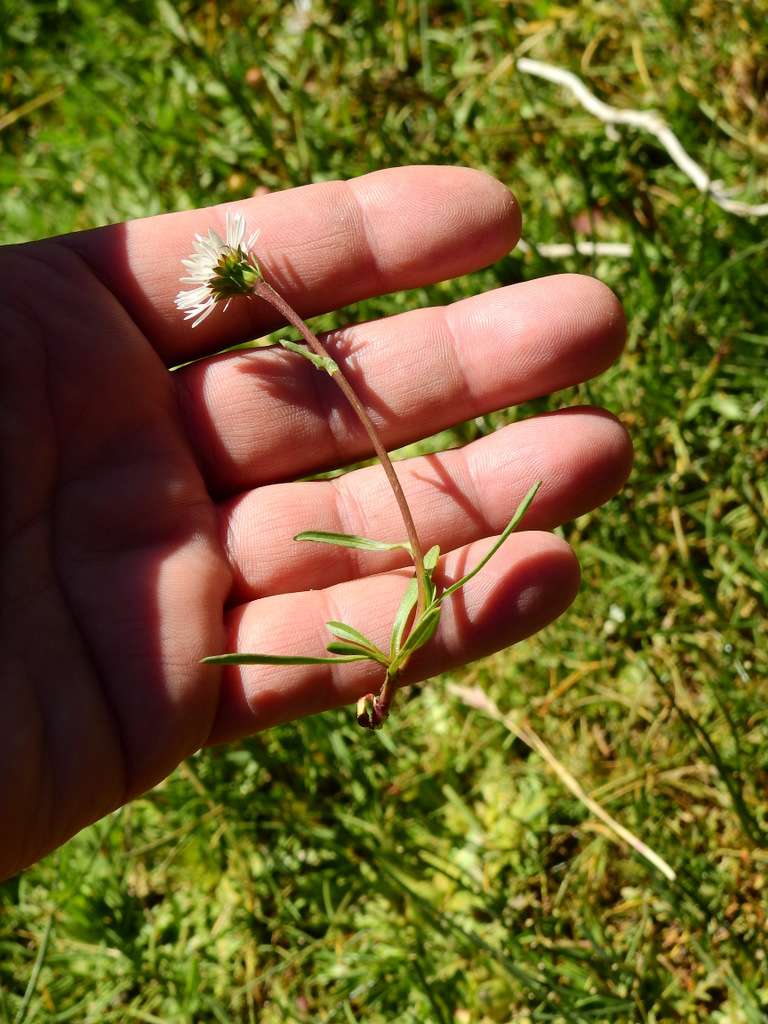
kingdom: Plantae
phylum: Tracheophyta
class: Magnoliopsida
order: Asterales
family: Asteraceae
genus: Erigeron
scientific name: Erigeron patagonicus
